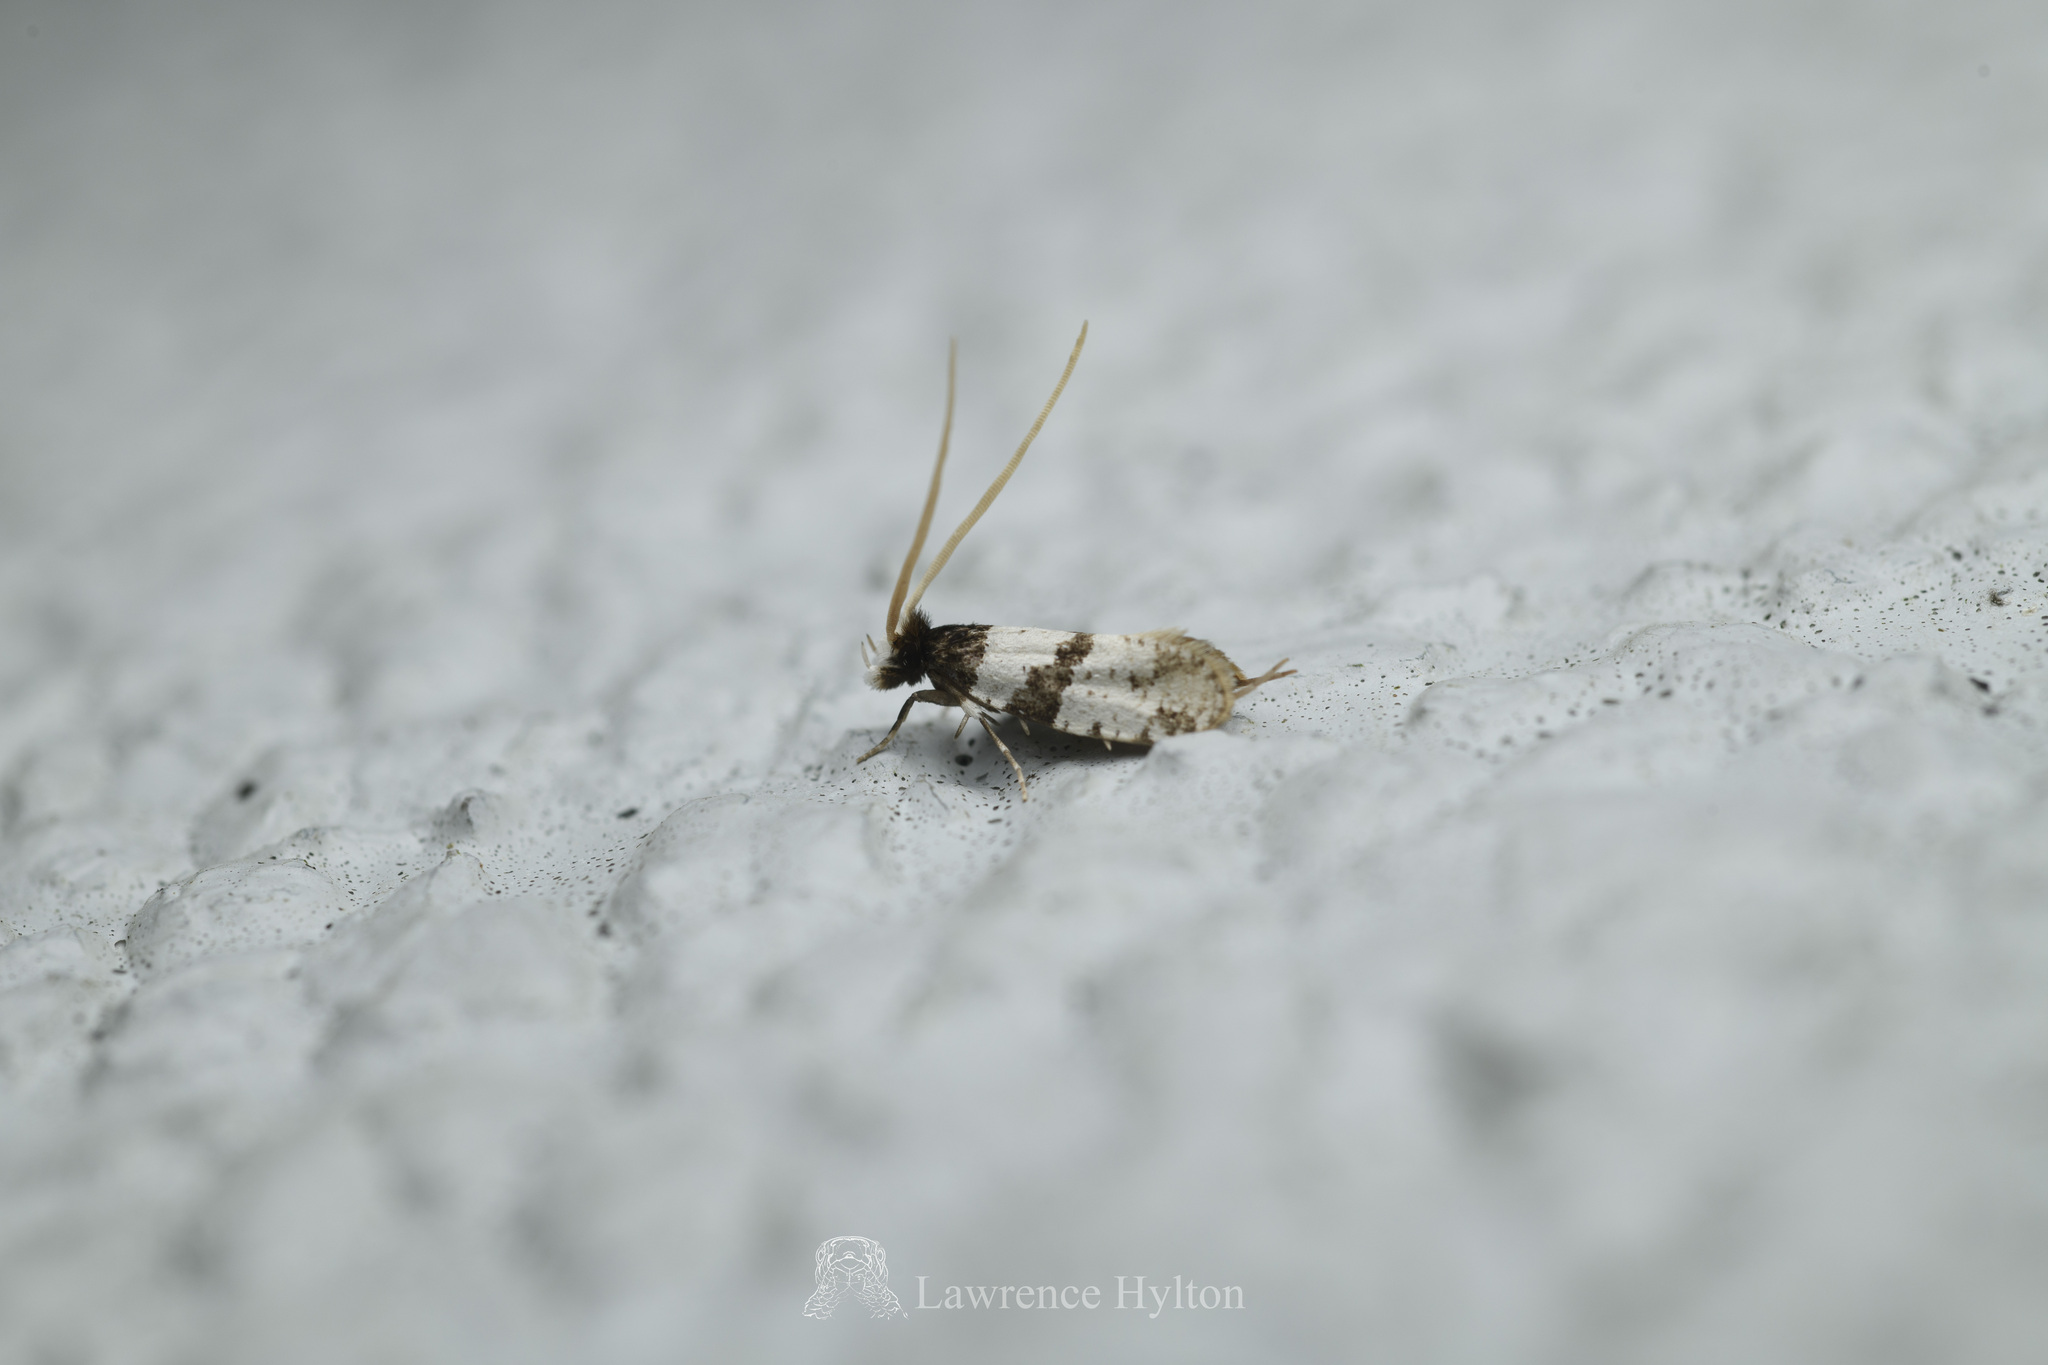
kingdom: Animalia
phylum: Arthropoda
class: Insecta
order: Lepidoptera
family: Tineidae
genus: Thisizima
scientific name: Thisizima fasciaria
